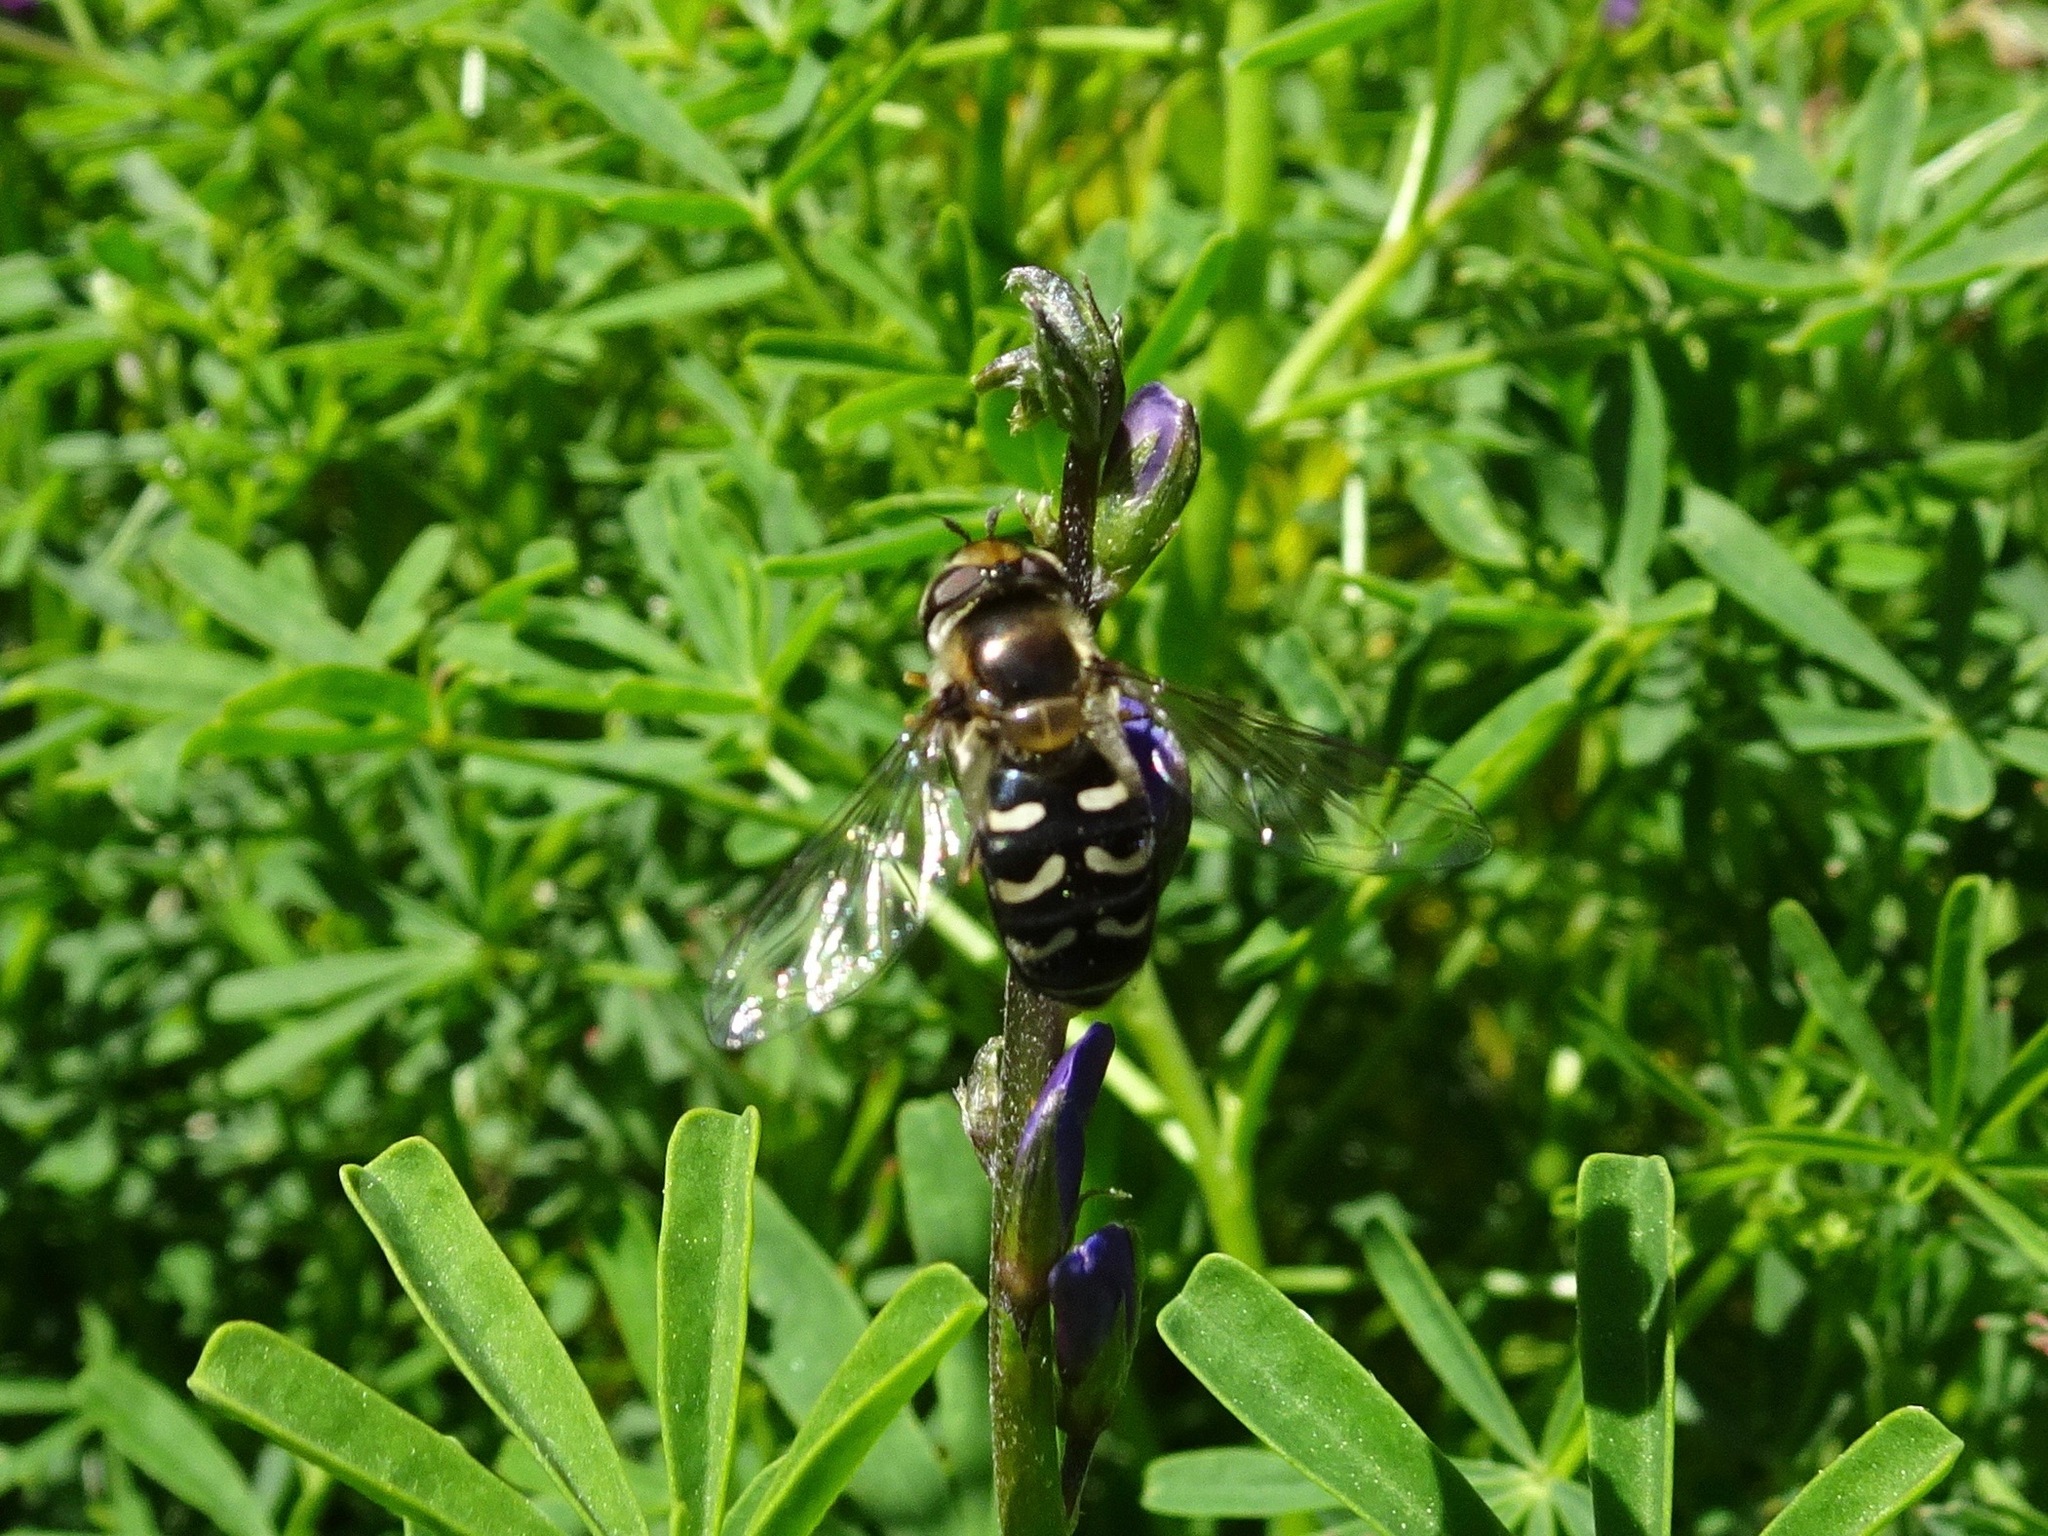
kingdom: Animalia
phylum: Arthropoda
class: Insecta
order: Diptera
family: Syrphidae
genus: Scaeva
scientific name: Scaeva affinis
